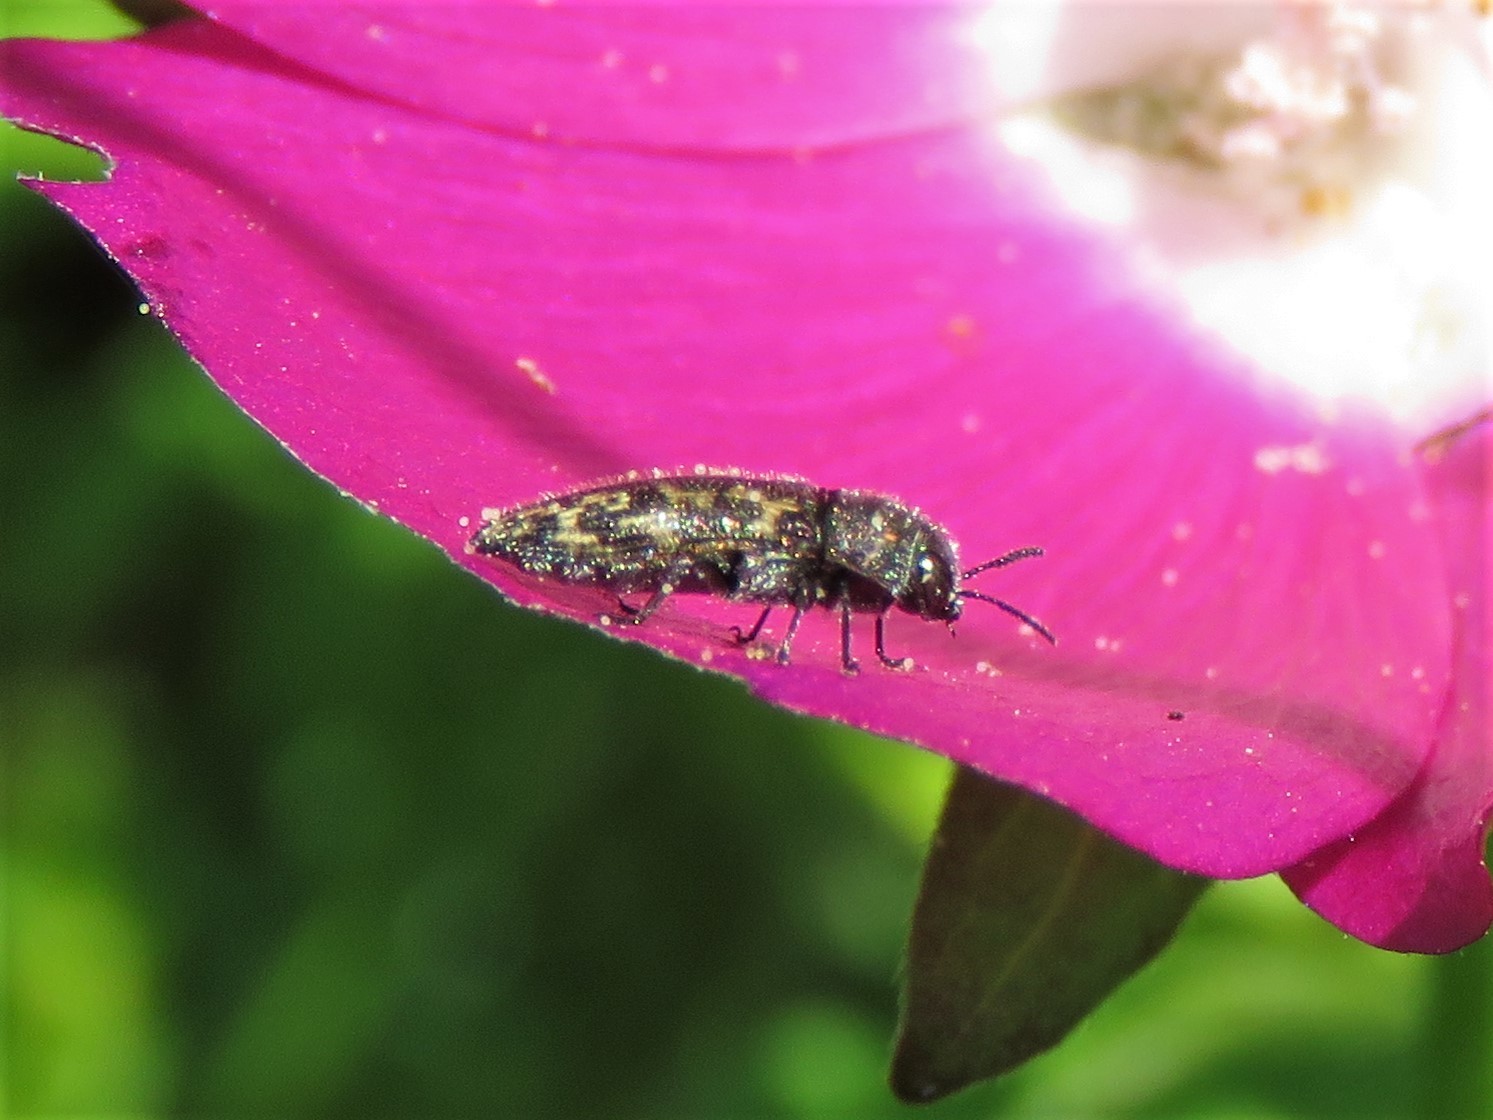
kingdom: Animalia
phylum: Arthropoda
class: Insecta
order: Coleoptera
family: Buprestidae
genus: Acmaeodera
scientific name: Acmaeodera neglecta
